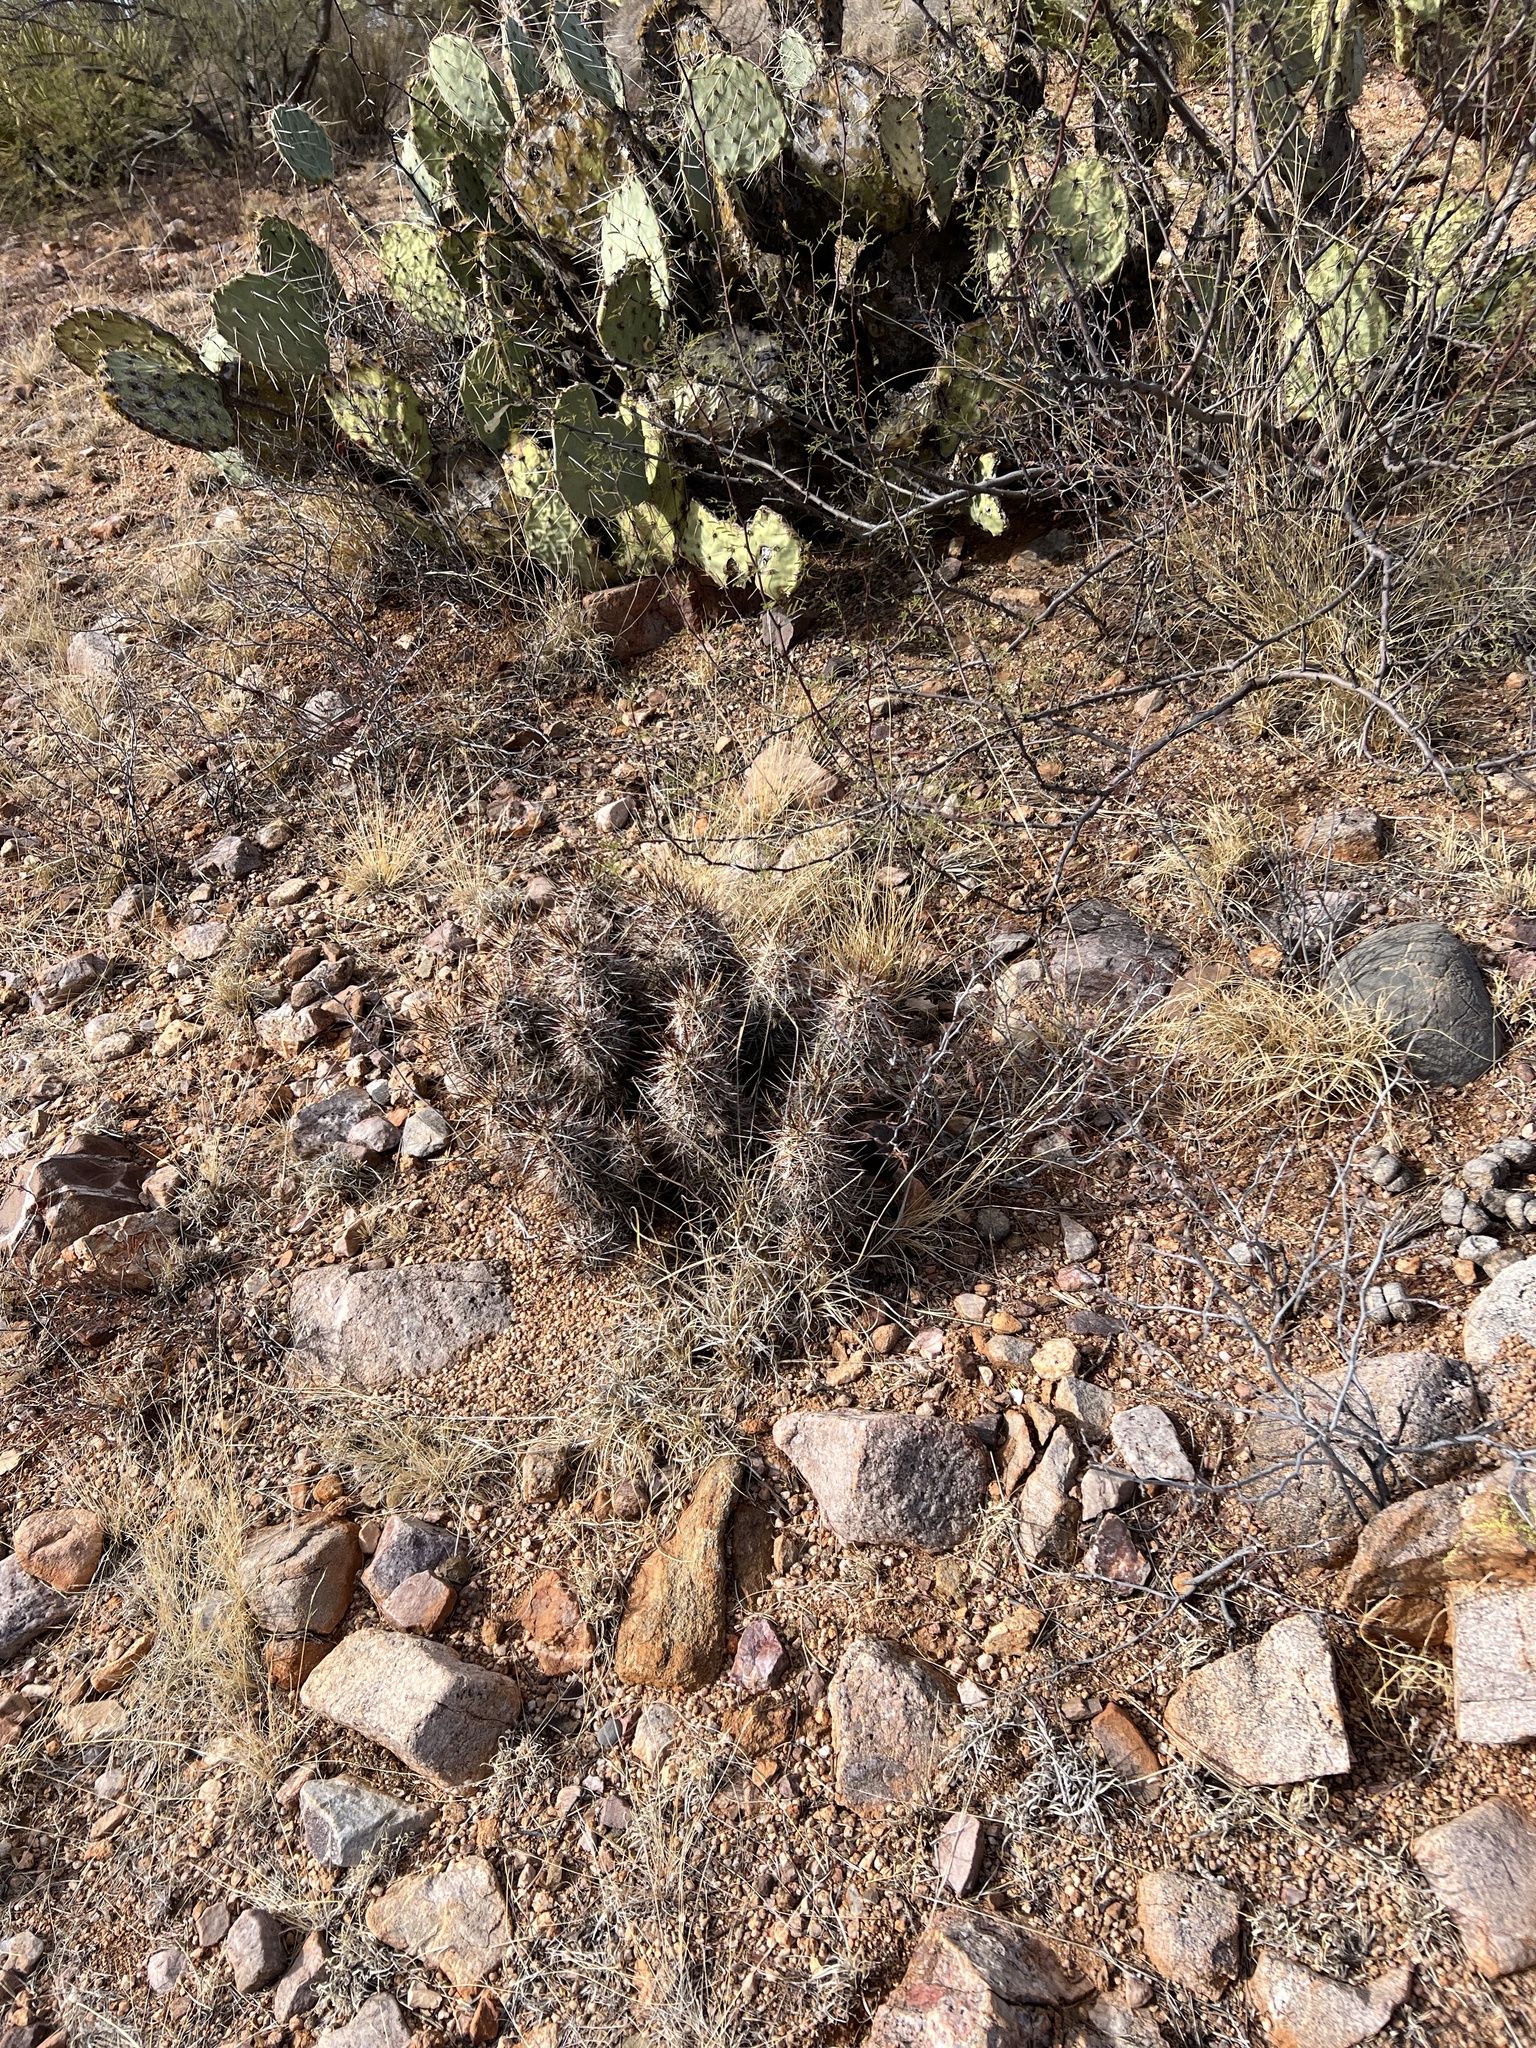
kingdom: Plantae
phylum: Tracheophyta
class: Magnoliopsida
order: Caryophyllales
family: Cactaceae
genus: Echinocereus
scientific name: Echinocereus fasciculatus
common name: Bundle hedgehog
